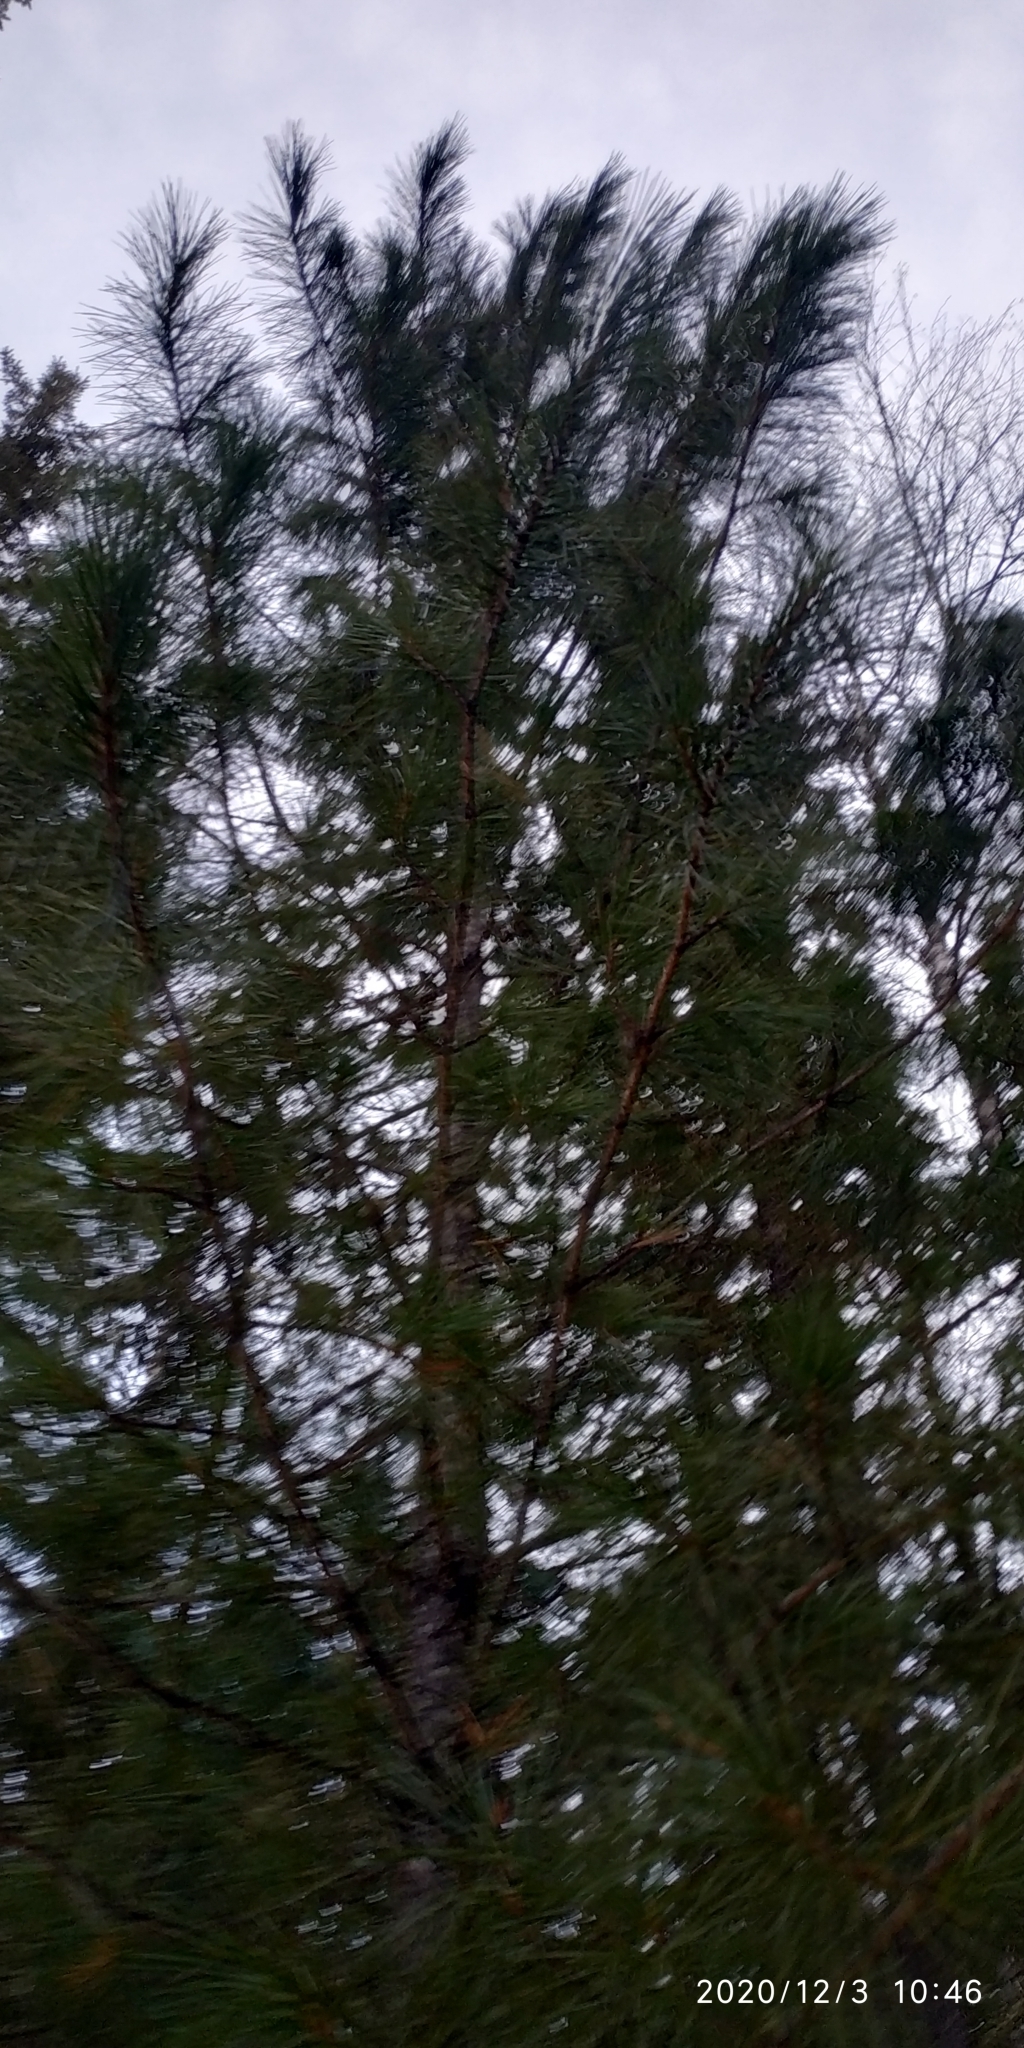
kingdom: Plantae
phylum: Tracheophyta
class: Pinopsida
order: Pinales
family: Pinaceae
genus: Pinus
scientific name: Pinus sibirica
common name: Siberian pine
